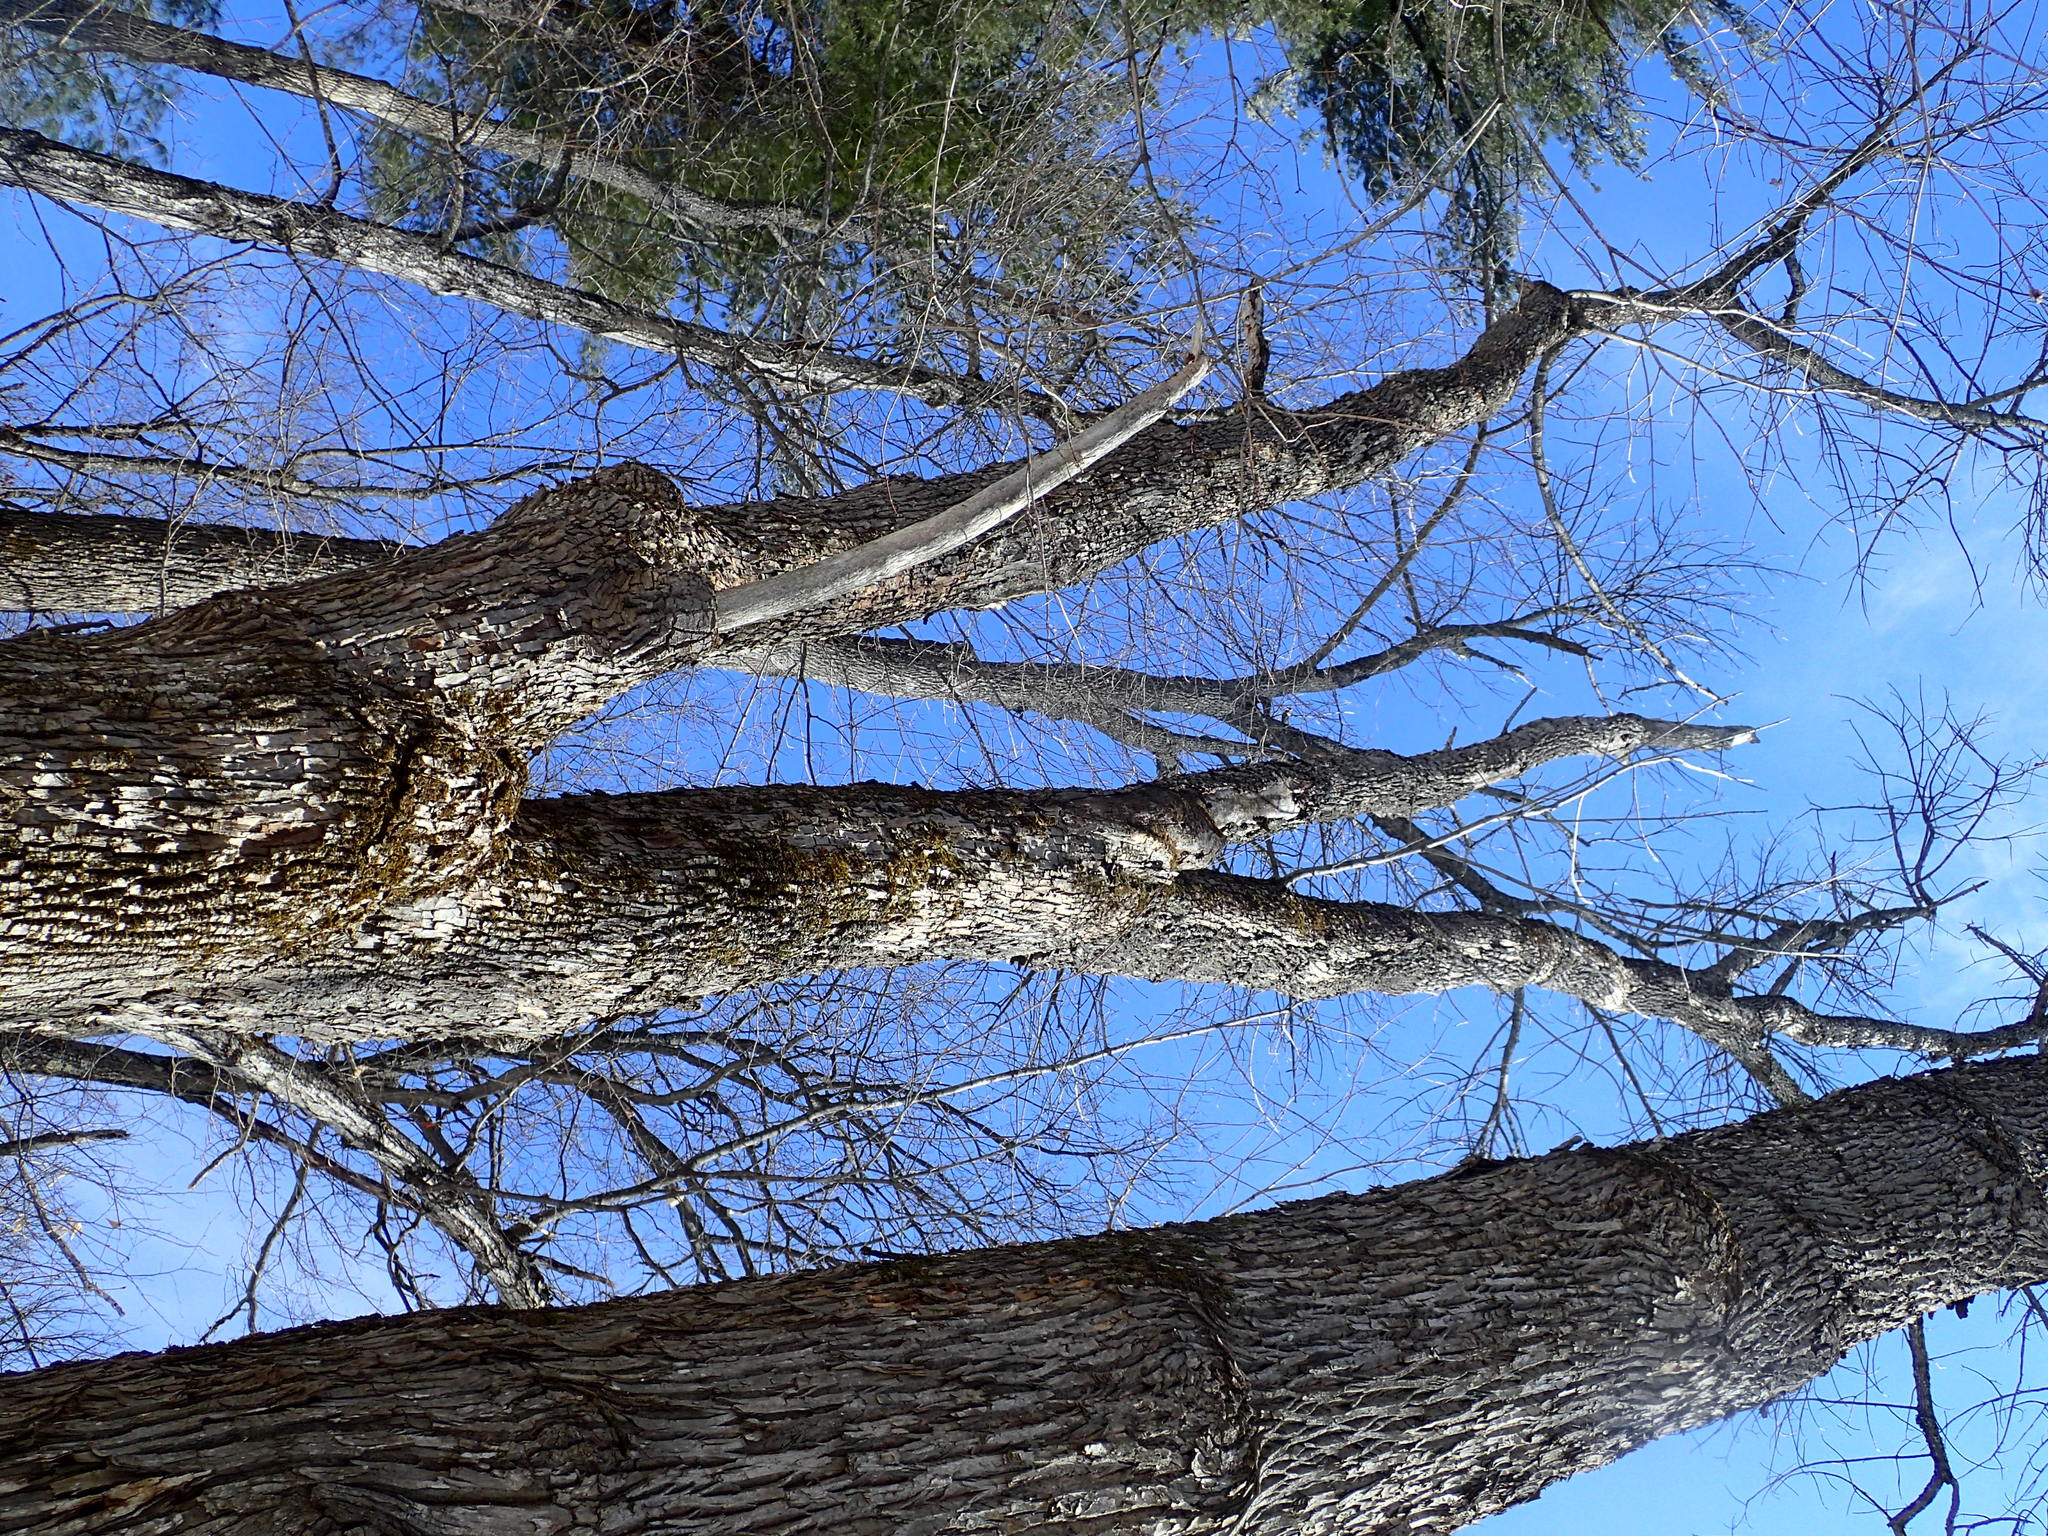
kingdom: Plantae
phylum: Tracheophyta
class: Magnoliopsida
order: Lamiales
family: Oleaceae
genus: Fraxinus
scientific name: Fraxinus americana
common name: White ash
